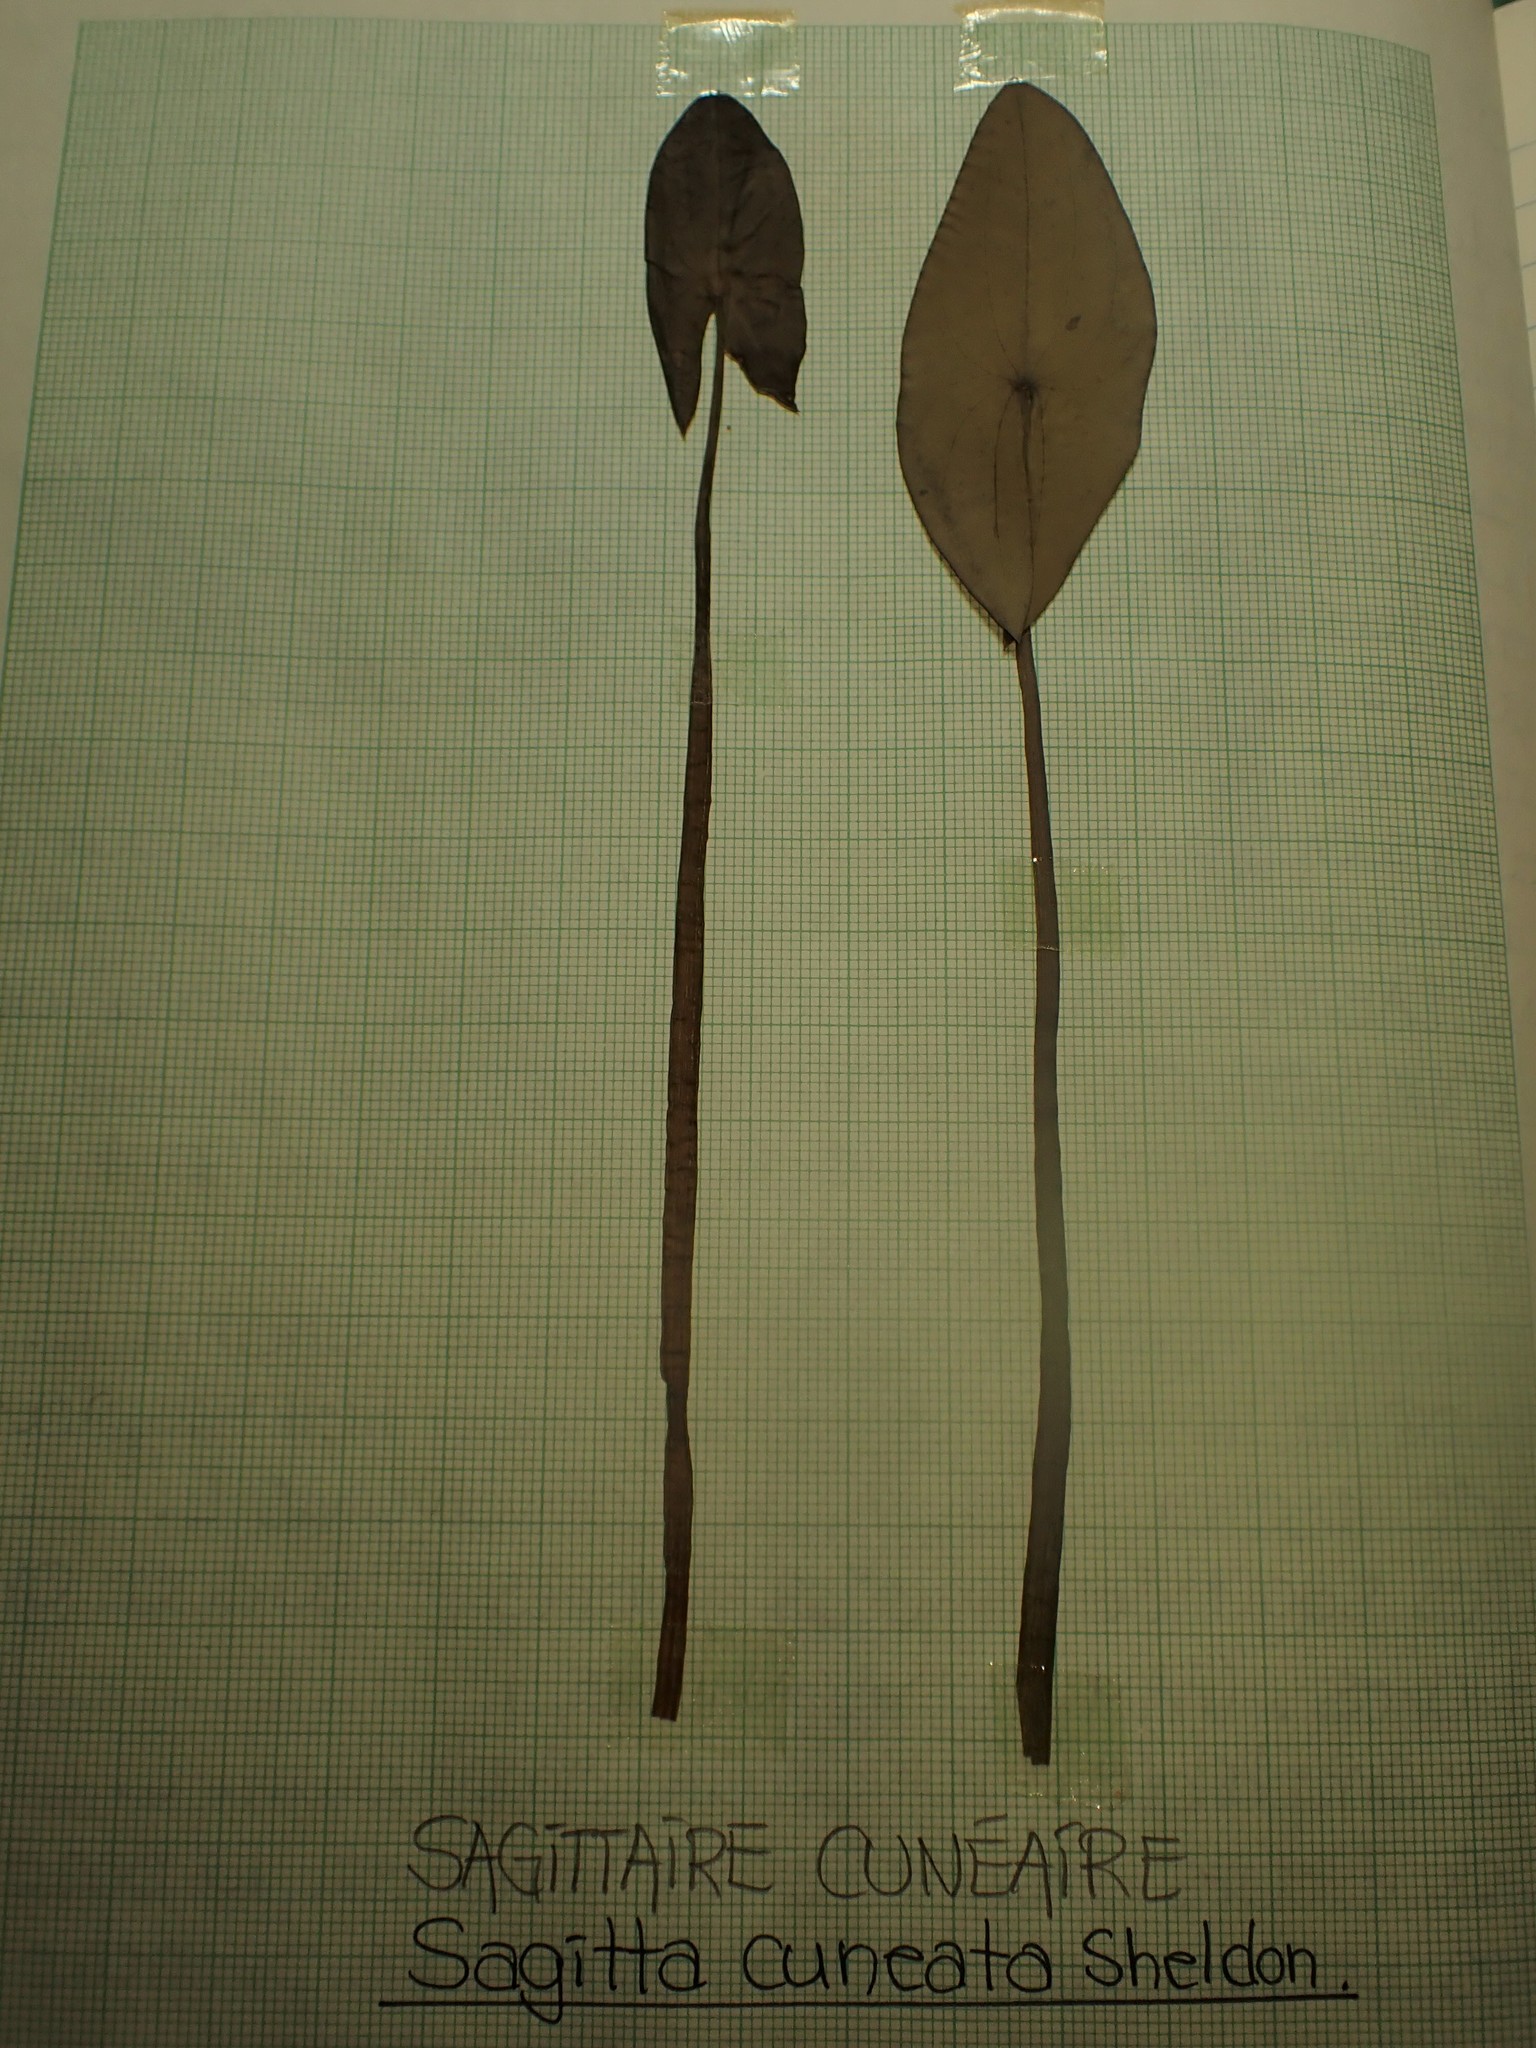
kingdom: Plantae
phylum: Tracheophyta
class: Liliopsida
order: Alismatales
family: Alismataceae
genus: Sagittaria
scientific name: Sagittaria cuneata
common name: Northern arrowhead
